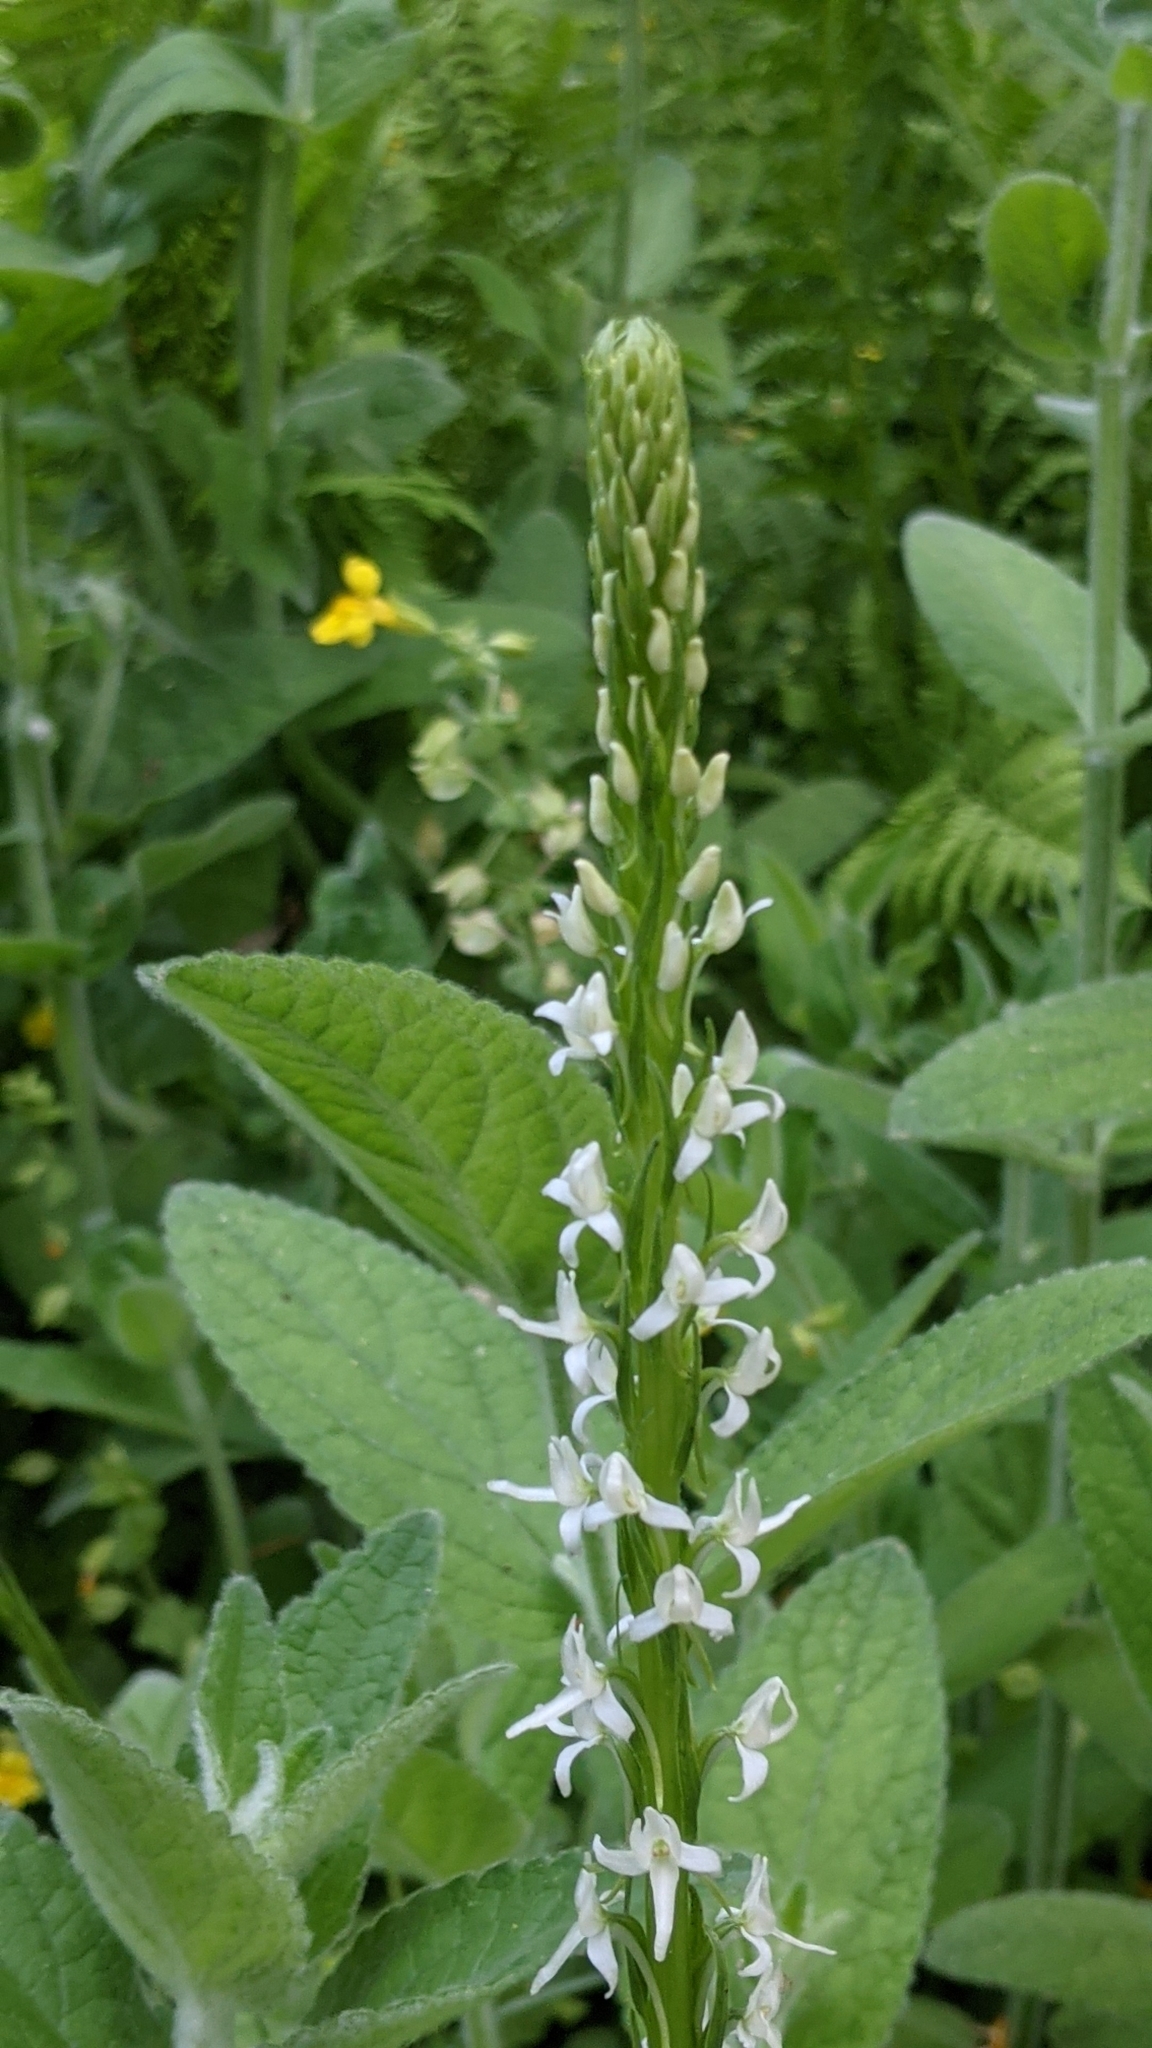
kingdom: Plantae
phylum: Tracheophyta
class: Liliopsida
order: Asparagales
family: Orchidaceae
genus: Platanthera
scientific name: Platanthera dilatata
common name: Bog candles
